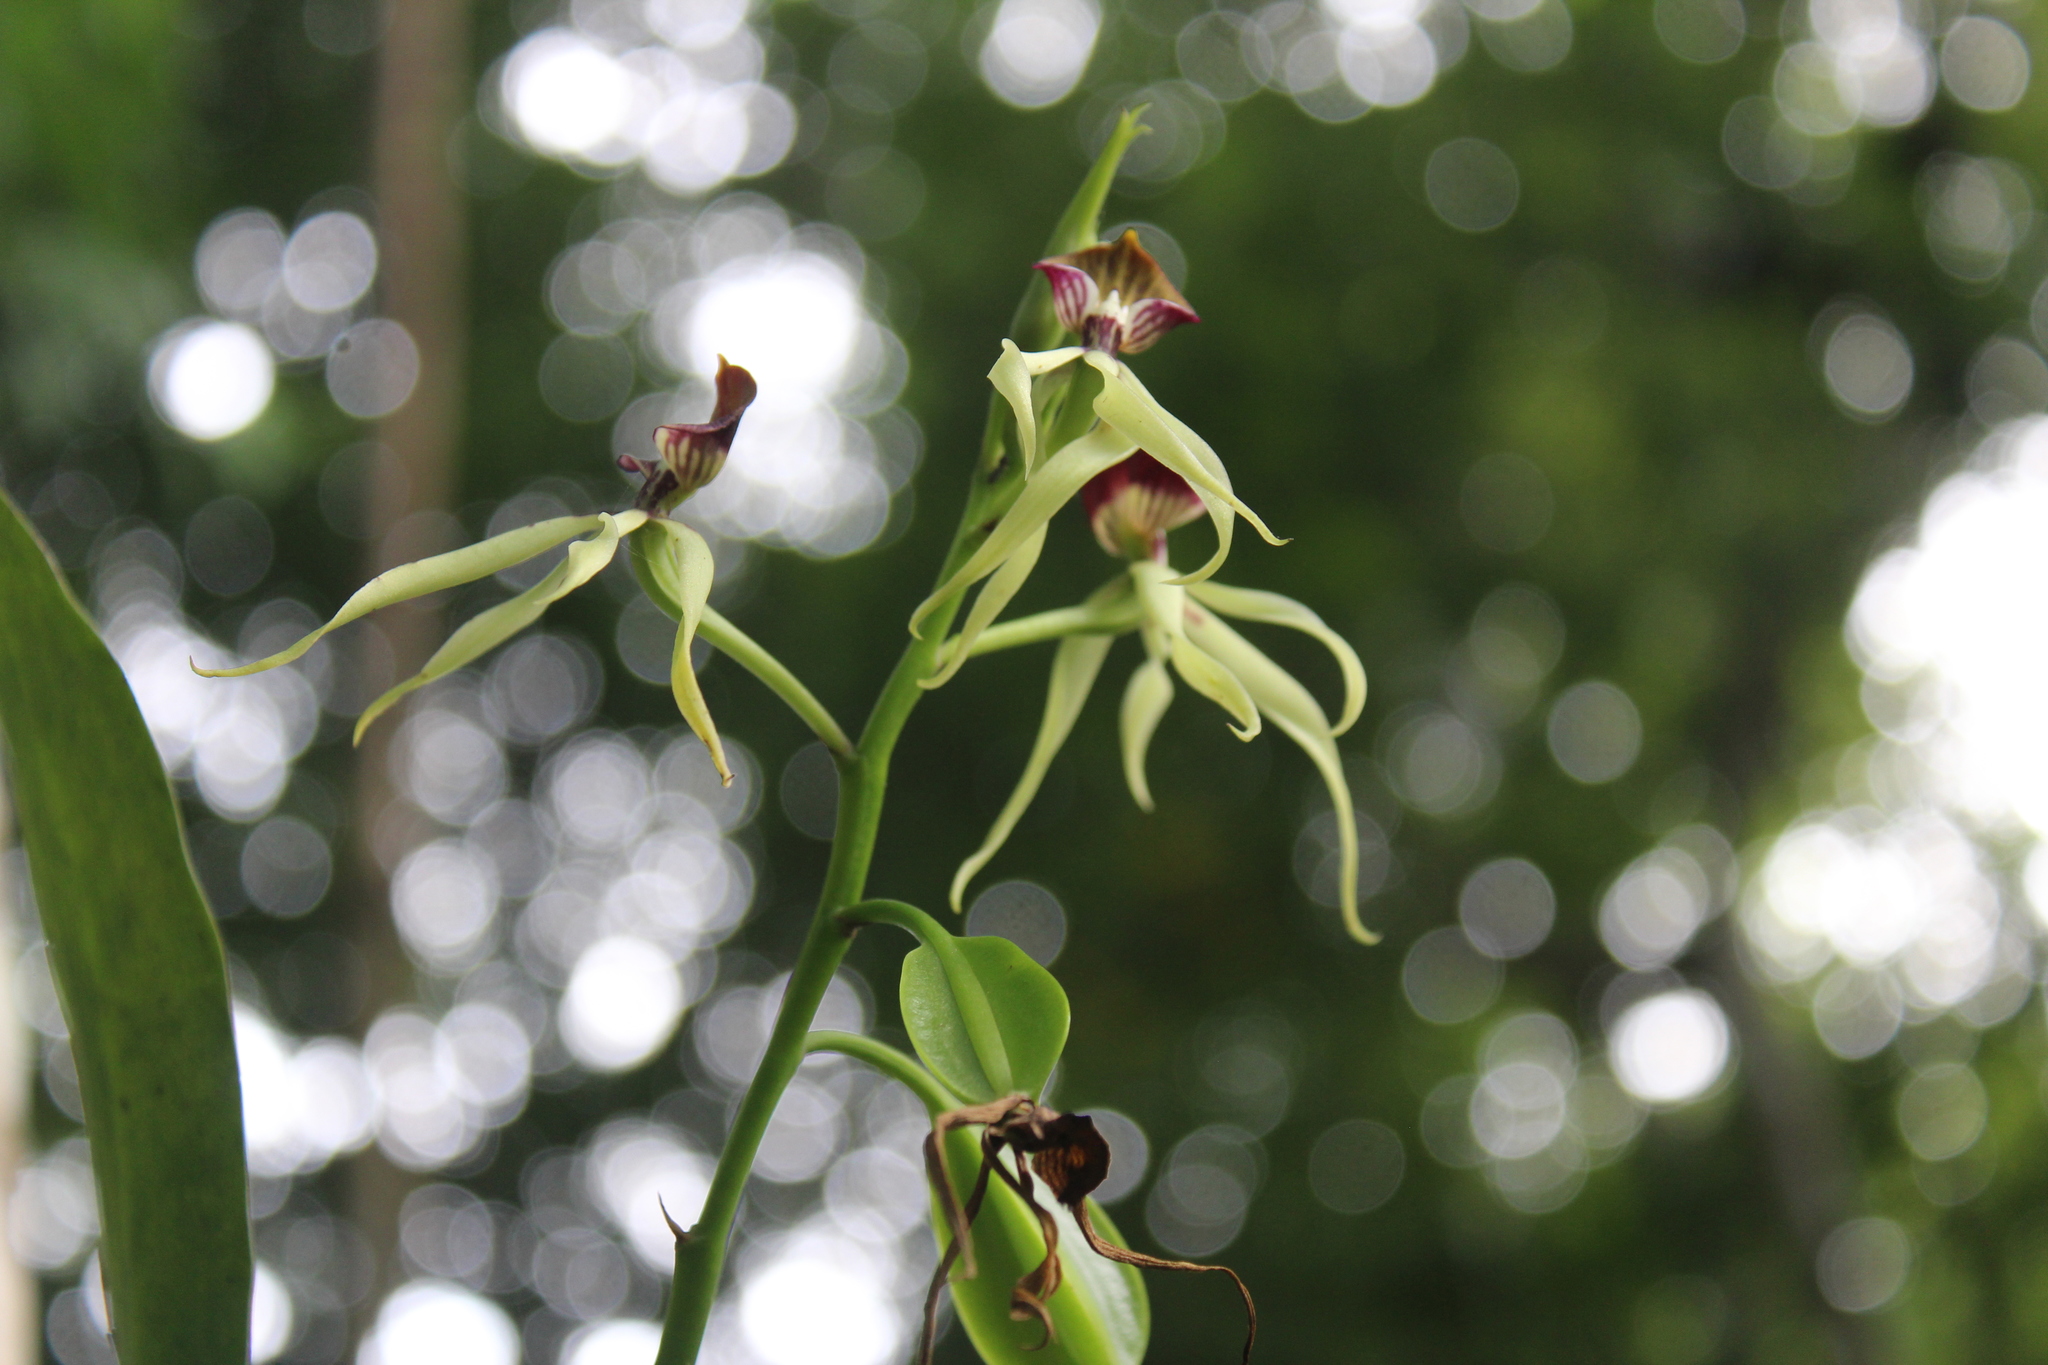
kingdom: Plantae
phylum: Tracheophyta
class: Liliopsida
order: Asparagales
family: Orchidaceae
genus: Prosthechea
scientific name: Prosthechea cochleata
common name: Clamshell orchid
